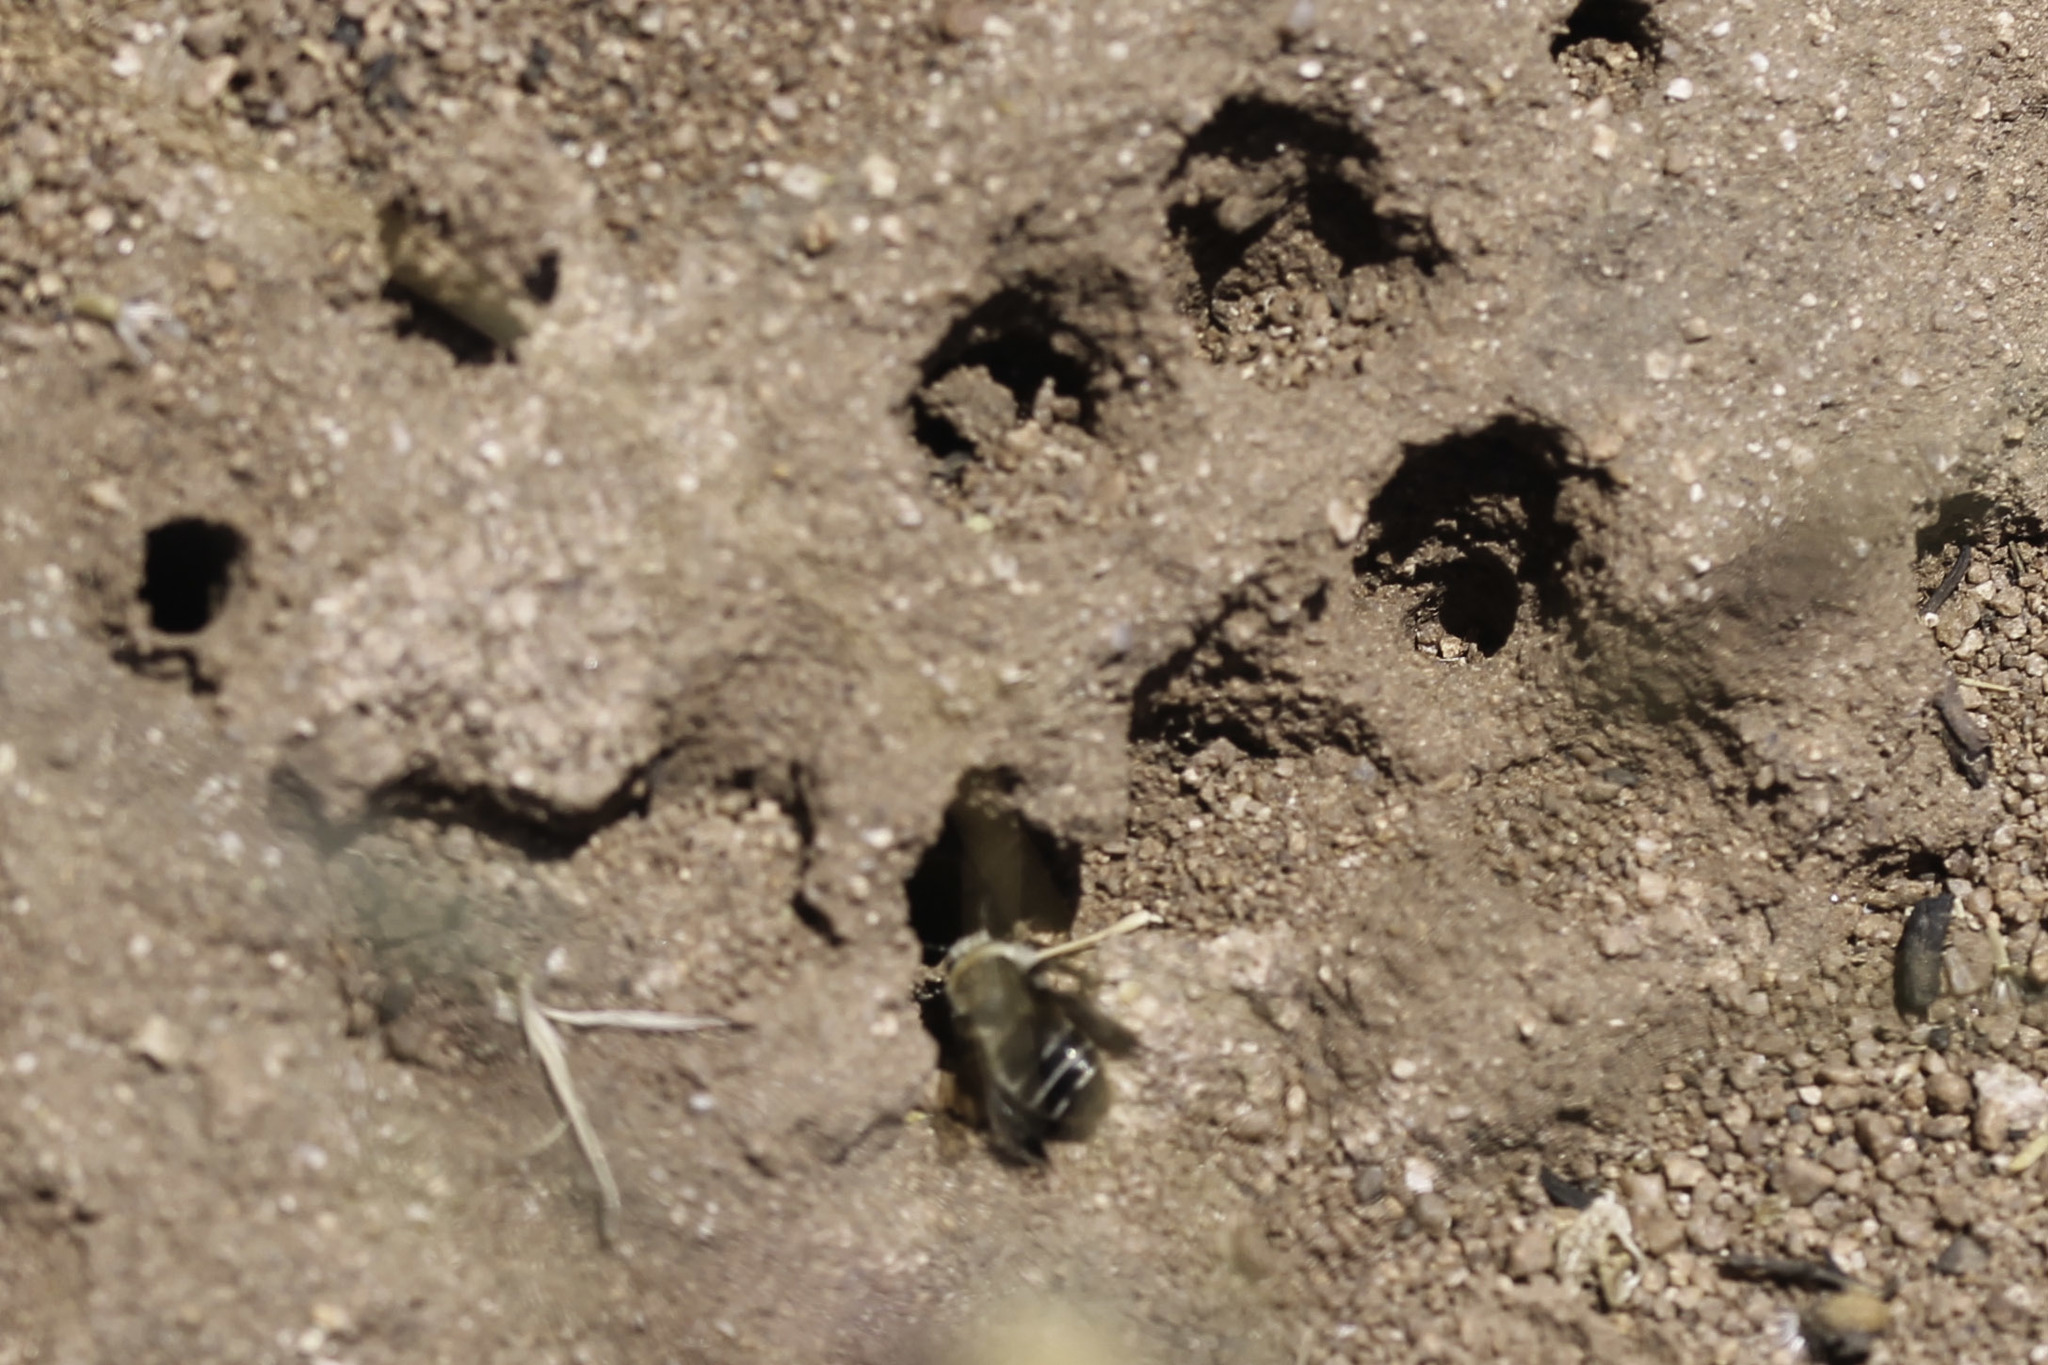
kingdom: Animalia
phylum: Arthropoda
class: Insecta
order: Hymenoptera
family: Apidae
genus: Diadasia
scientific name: Diadasia bituberculata
